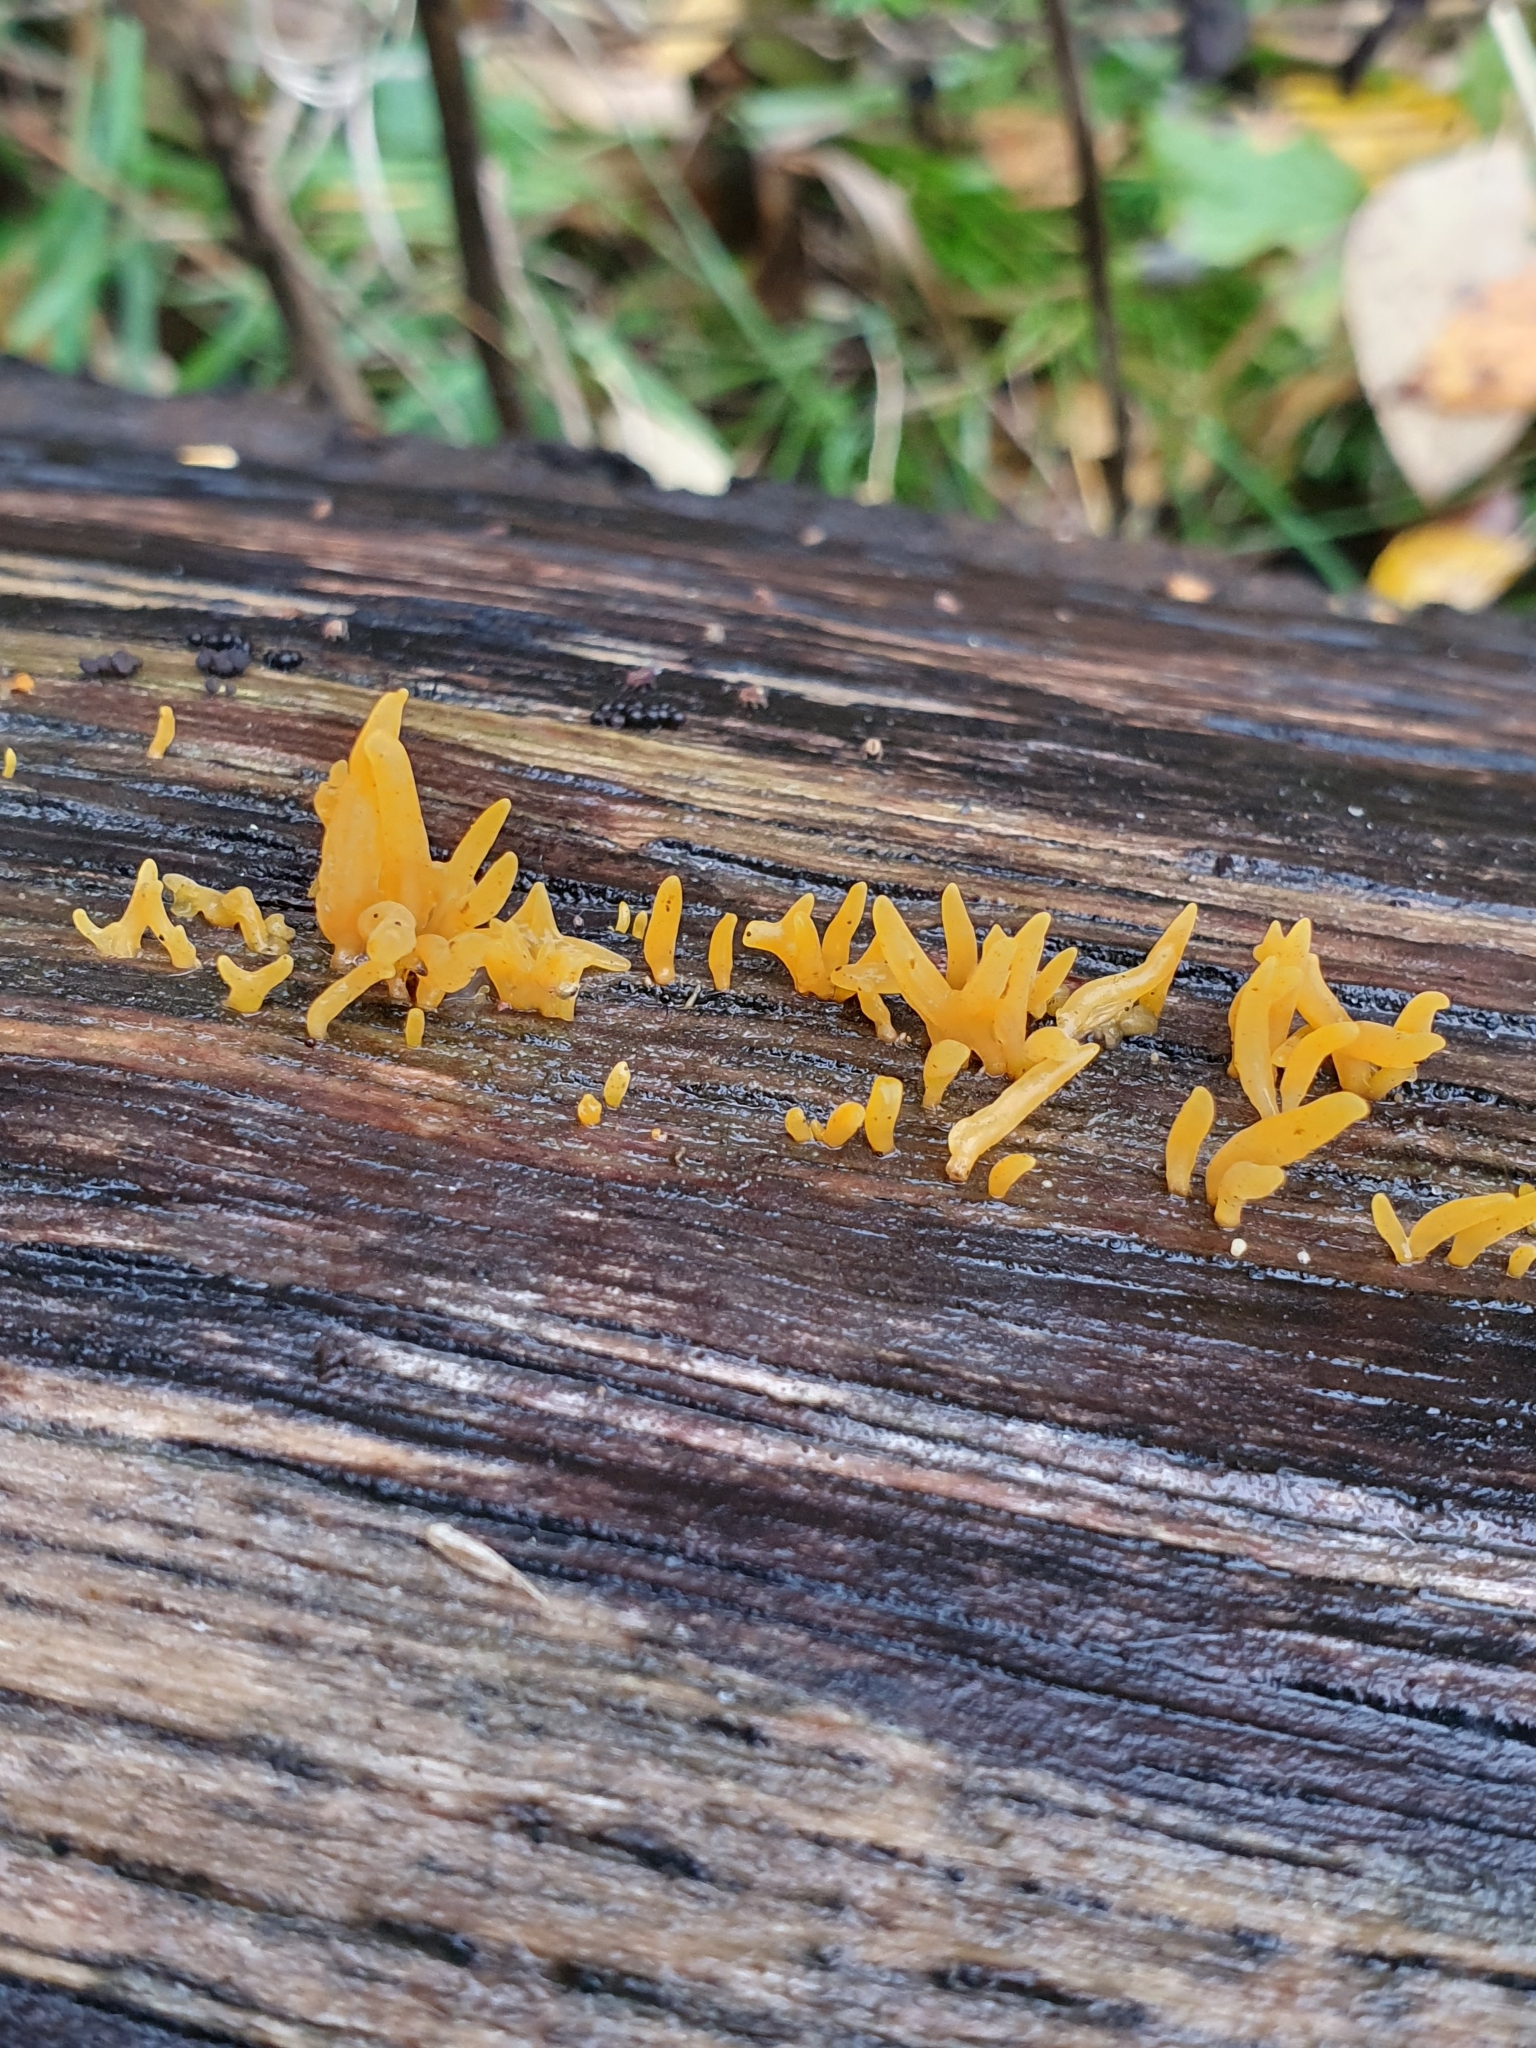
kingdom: Fungi
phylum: Basidiomycota
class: Dacrymycetes
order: Dacrymycetales
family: Dacrymycetaceae
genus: Calocera
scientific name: Calocera cornea
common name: Small stagshorn
